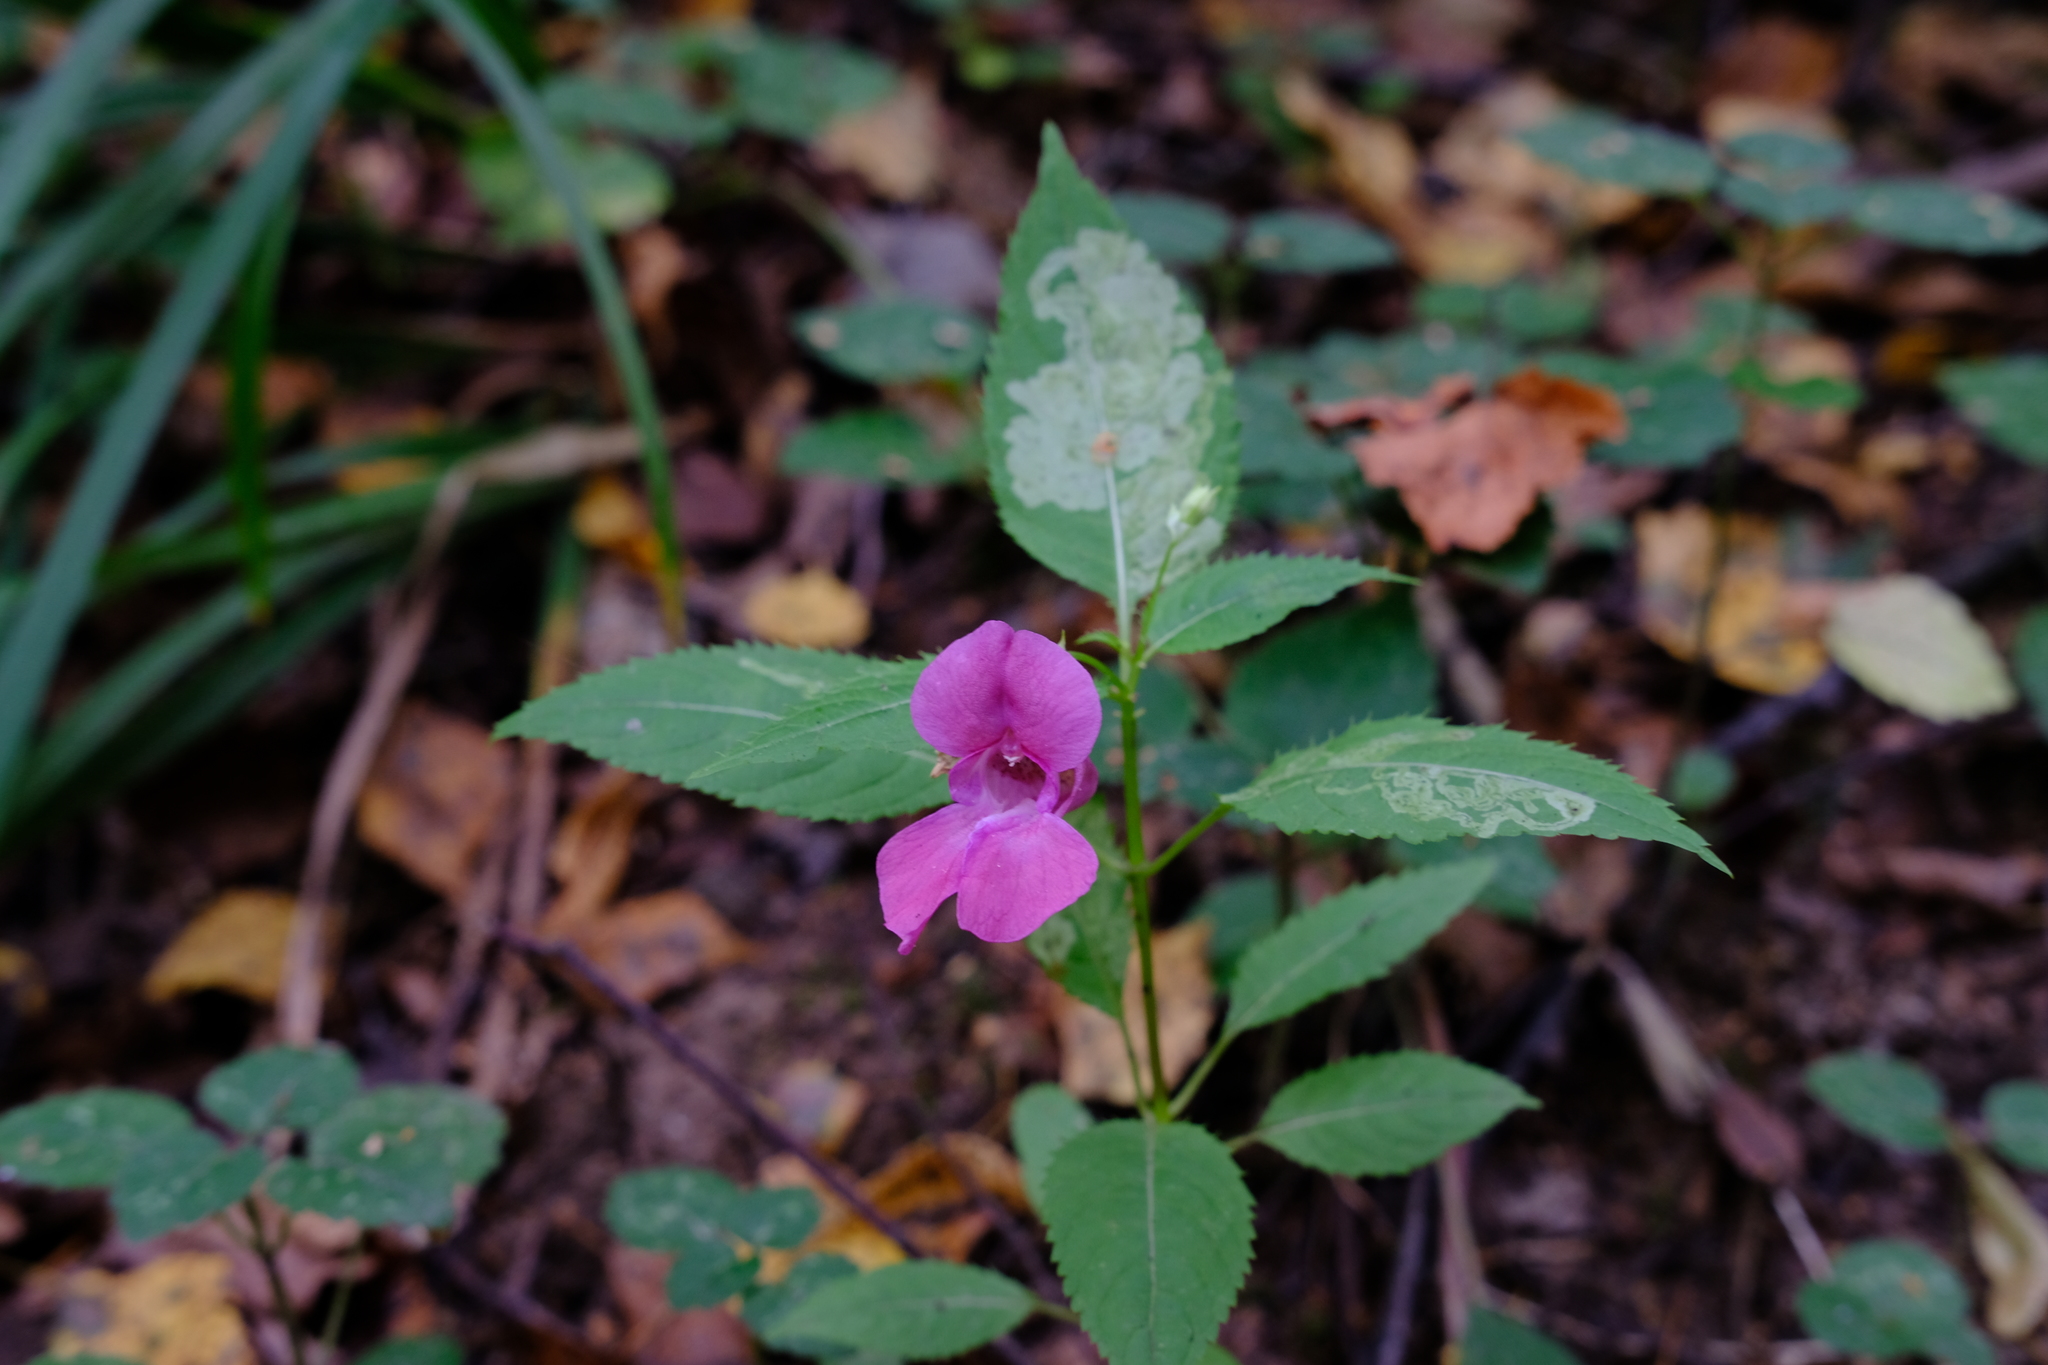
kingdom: Plantae
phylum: Tracheophyta
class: Magnoliopsida
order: Ericales
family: Balsaminaceae
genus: Impatiens
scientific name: Impatiens glandulifera
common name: Himalayan balsam
